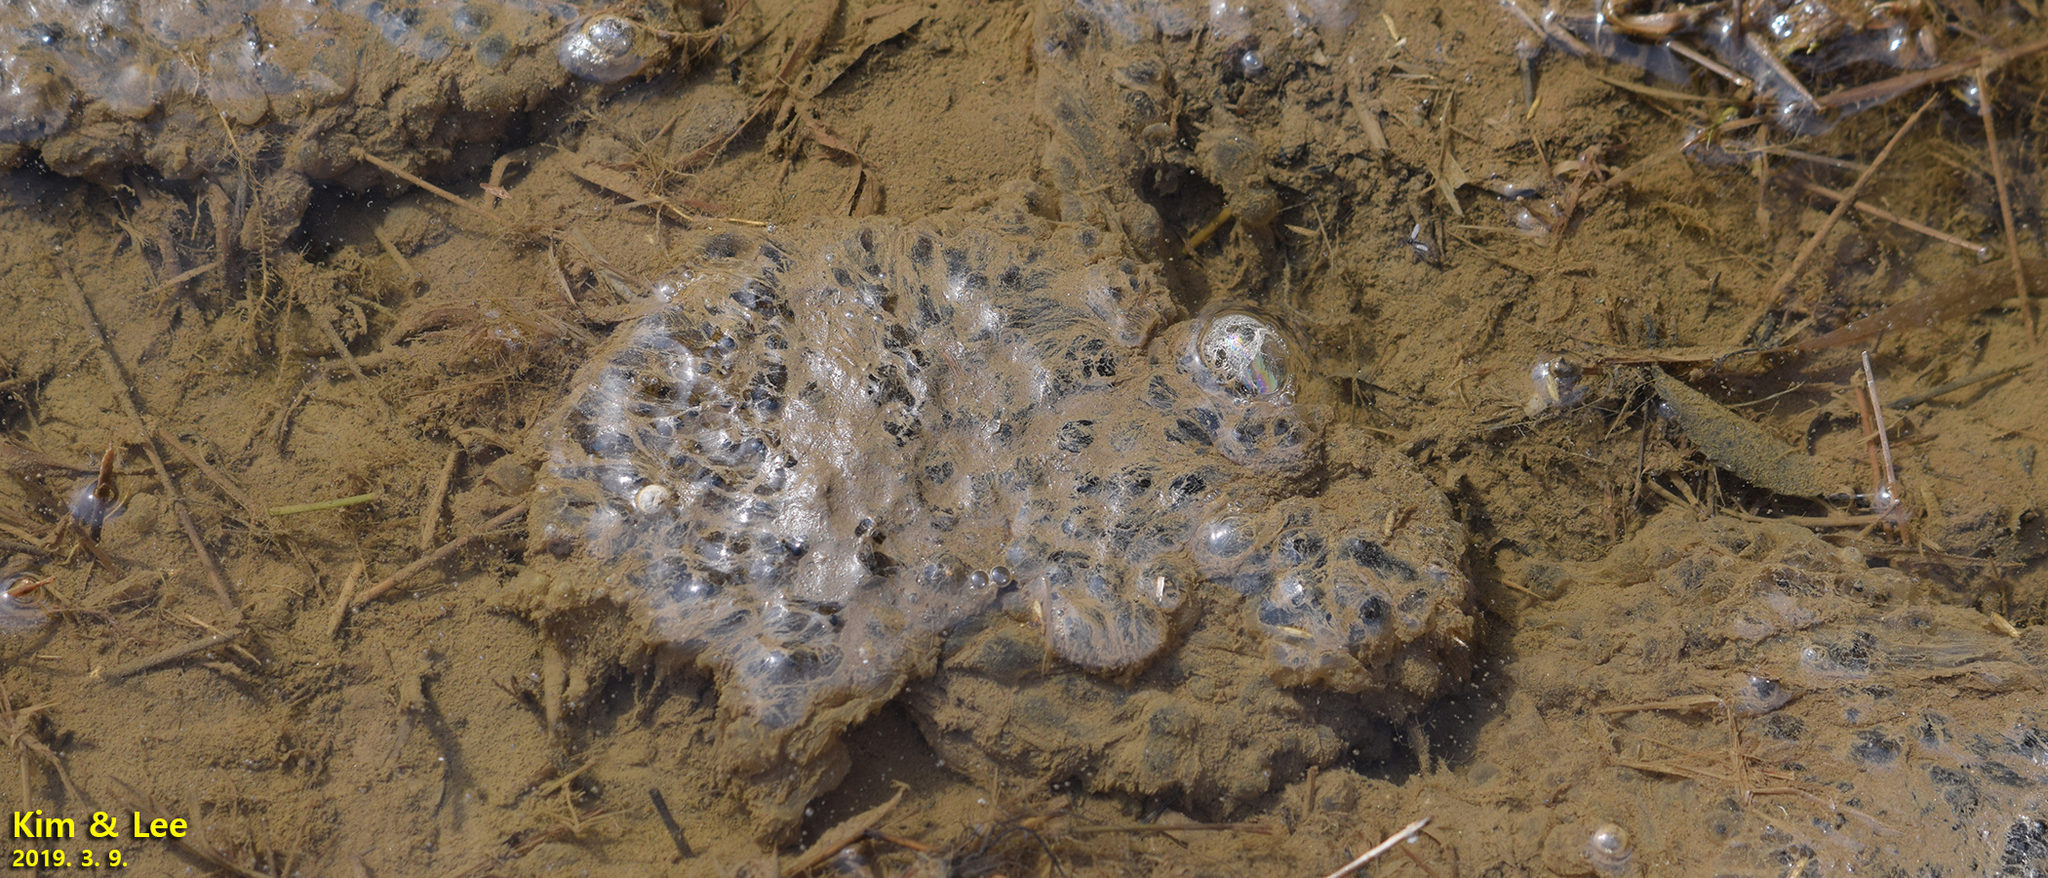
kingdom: Animalia
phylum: Chordata
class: Amphibia
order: Anura
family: Ranidae
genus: Rana
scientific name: Rana uenoi
